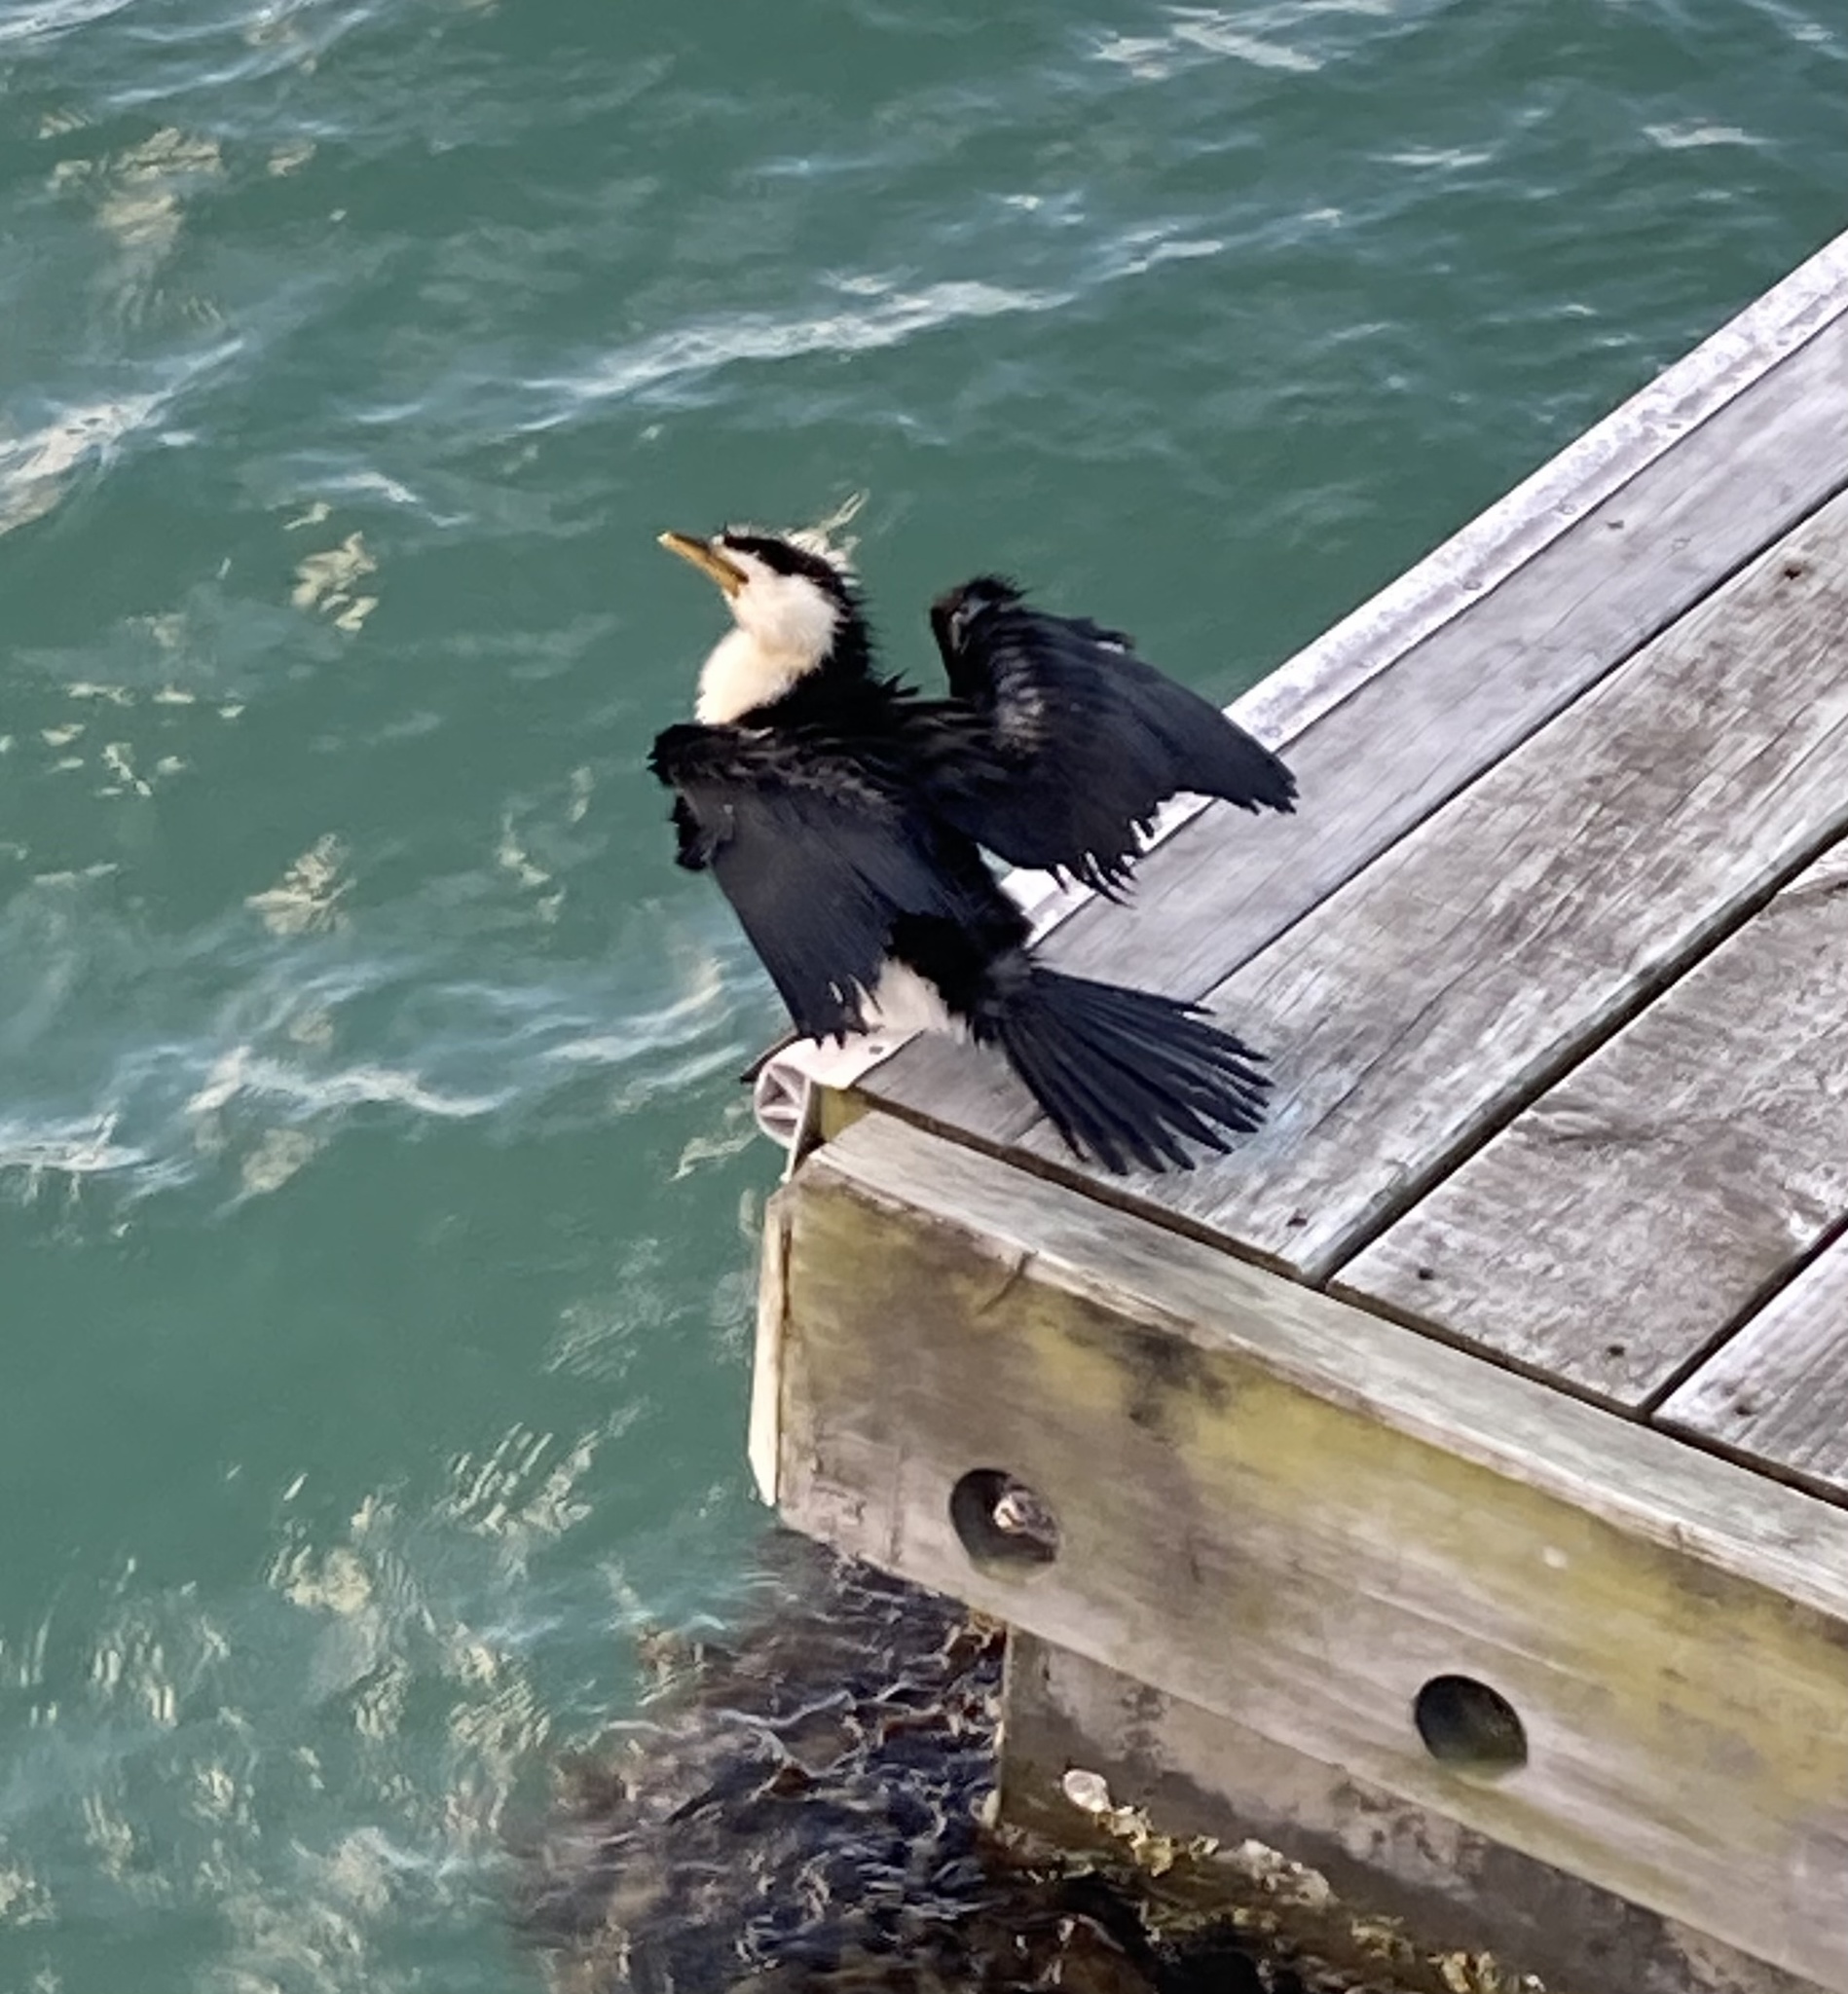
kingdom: Animalia
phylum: Chordata
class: Aves
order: Suliformes
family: Phalacrocoracidae
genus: Microcarbo
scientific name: Microcarbo melanoleucos
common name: Little pied cormorant
